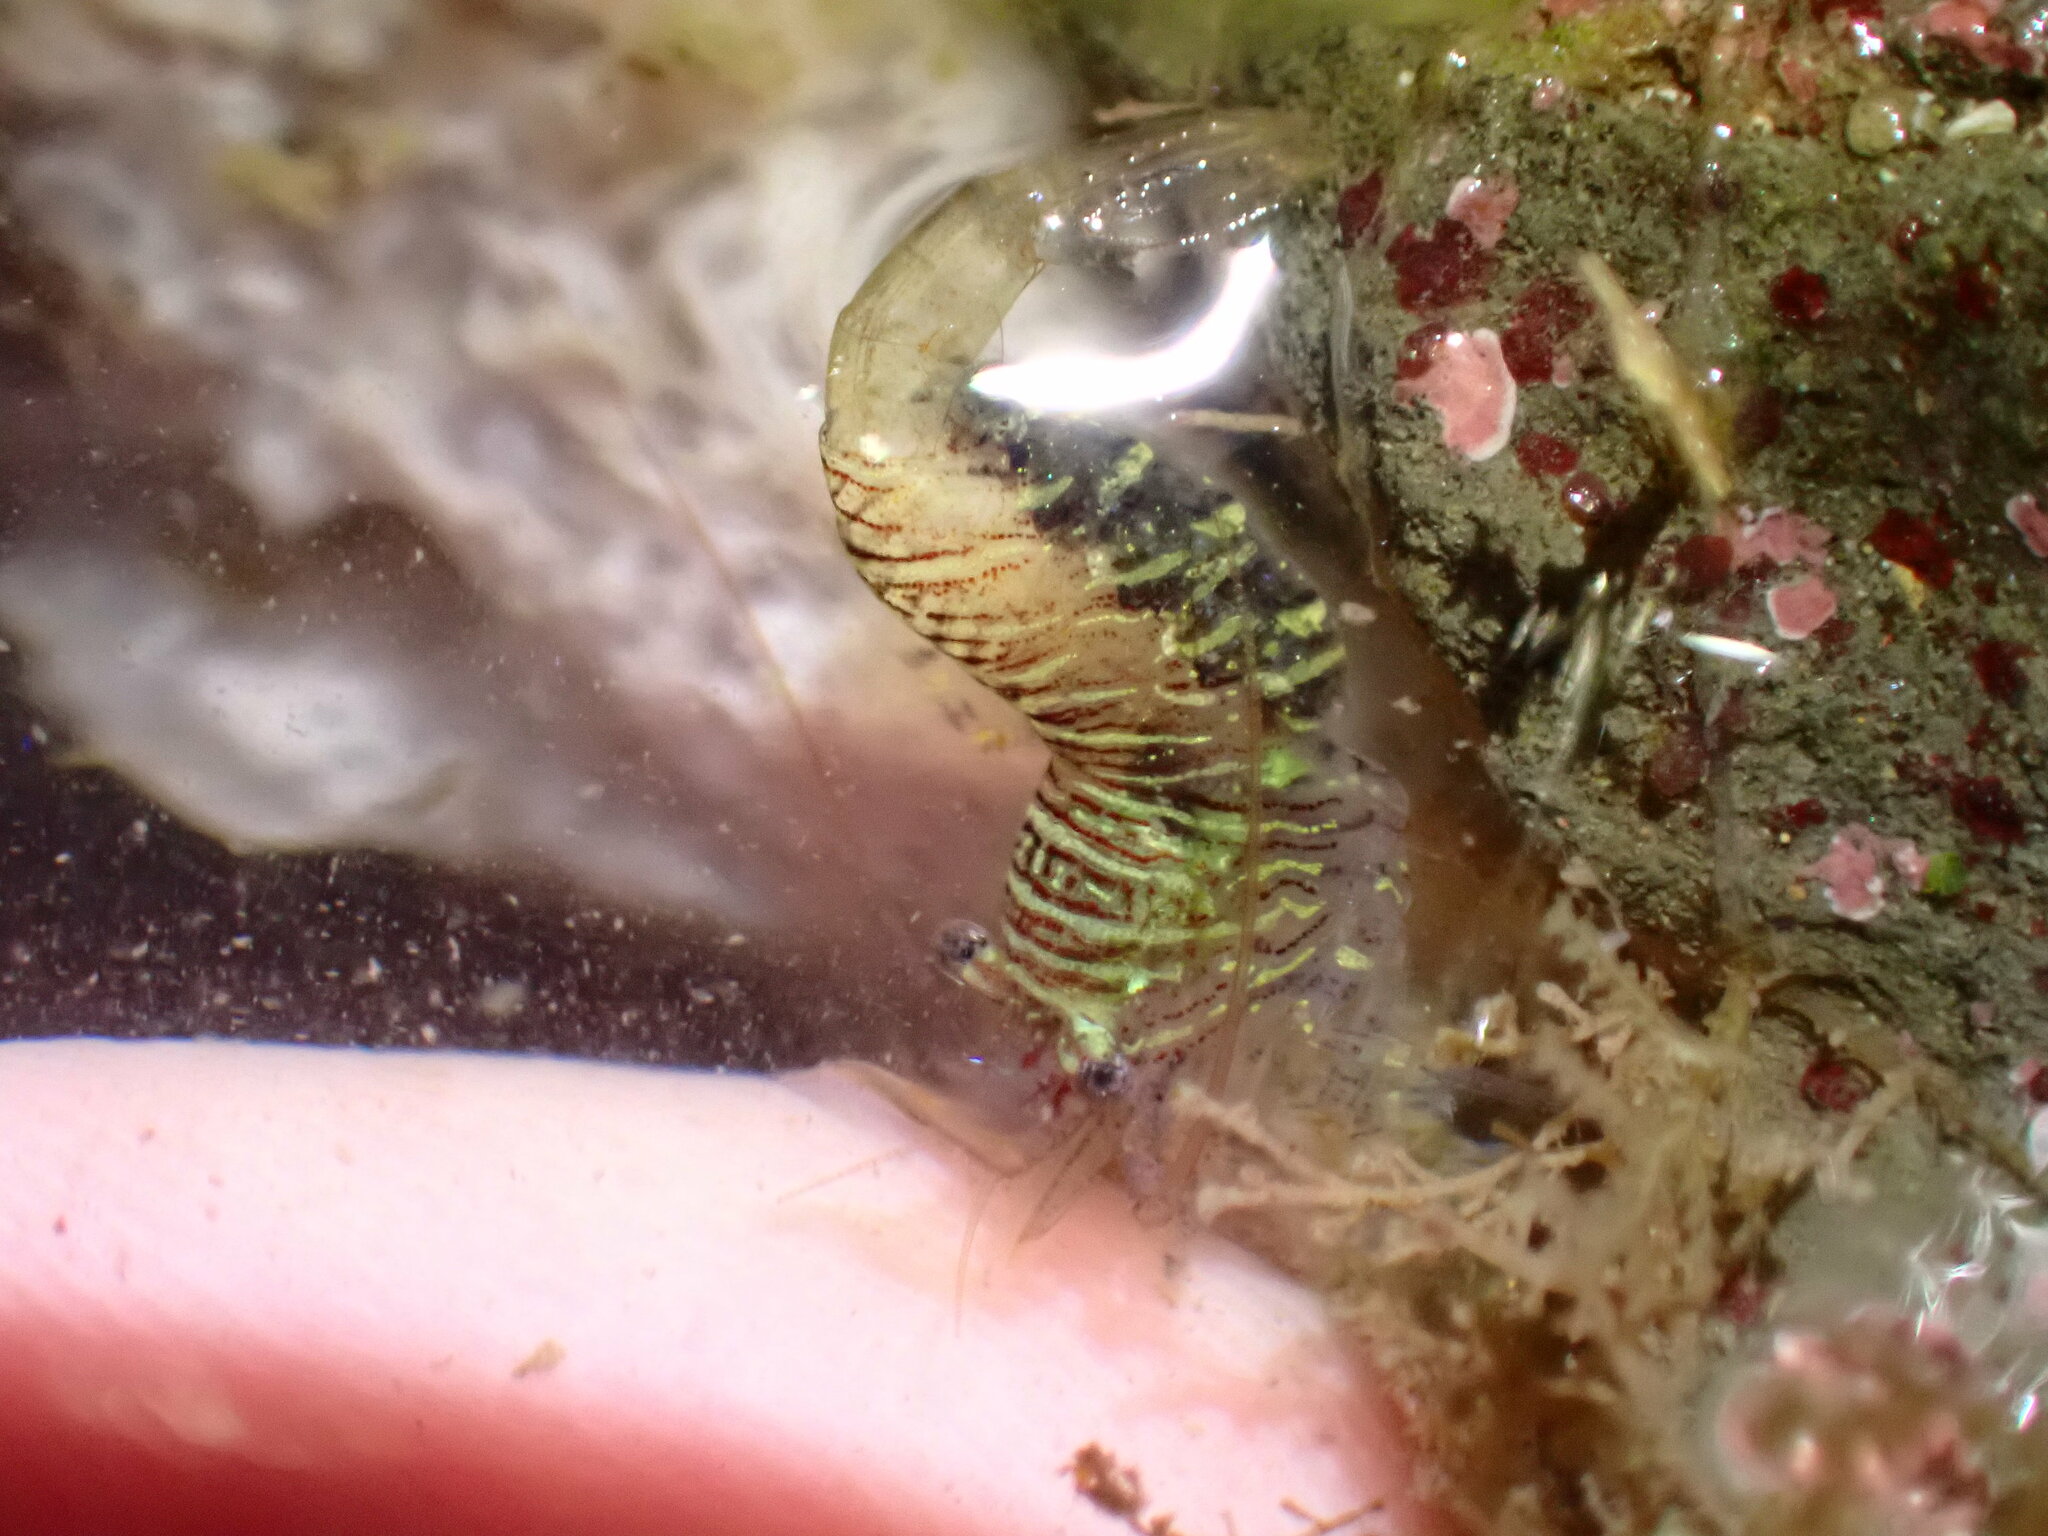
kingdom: Animalia
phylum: Arthropoda
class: Malacostraca
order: Decapoda
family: Thoridae
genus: Heptacarpus
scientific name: Heptacarpus pugettensis
